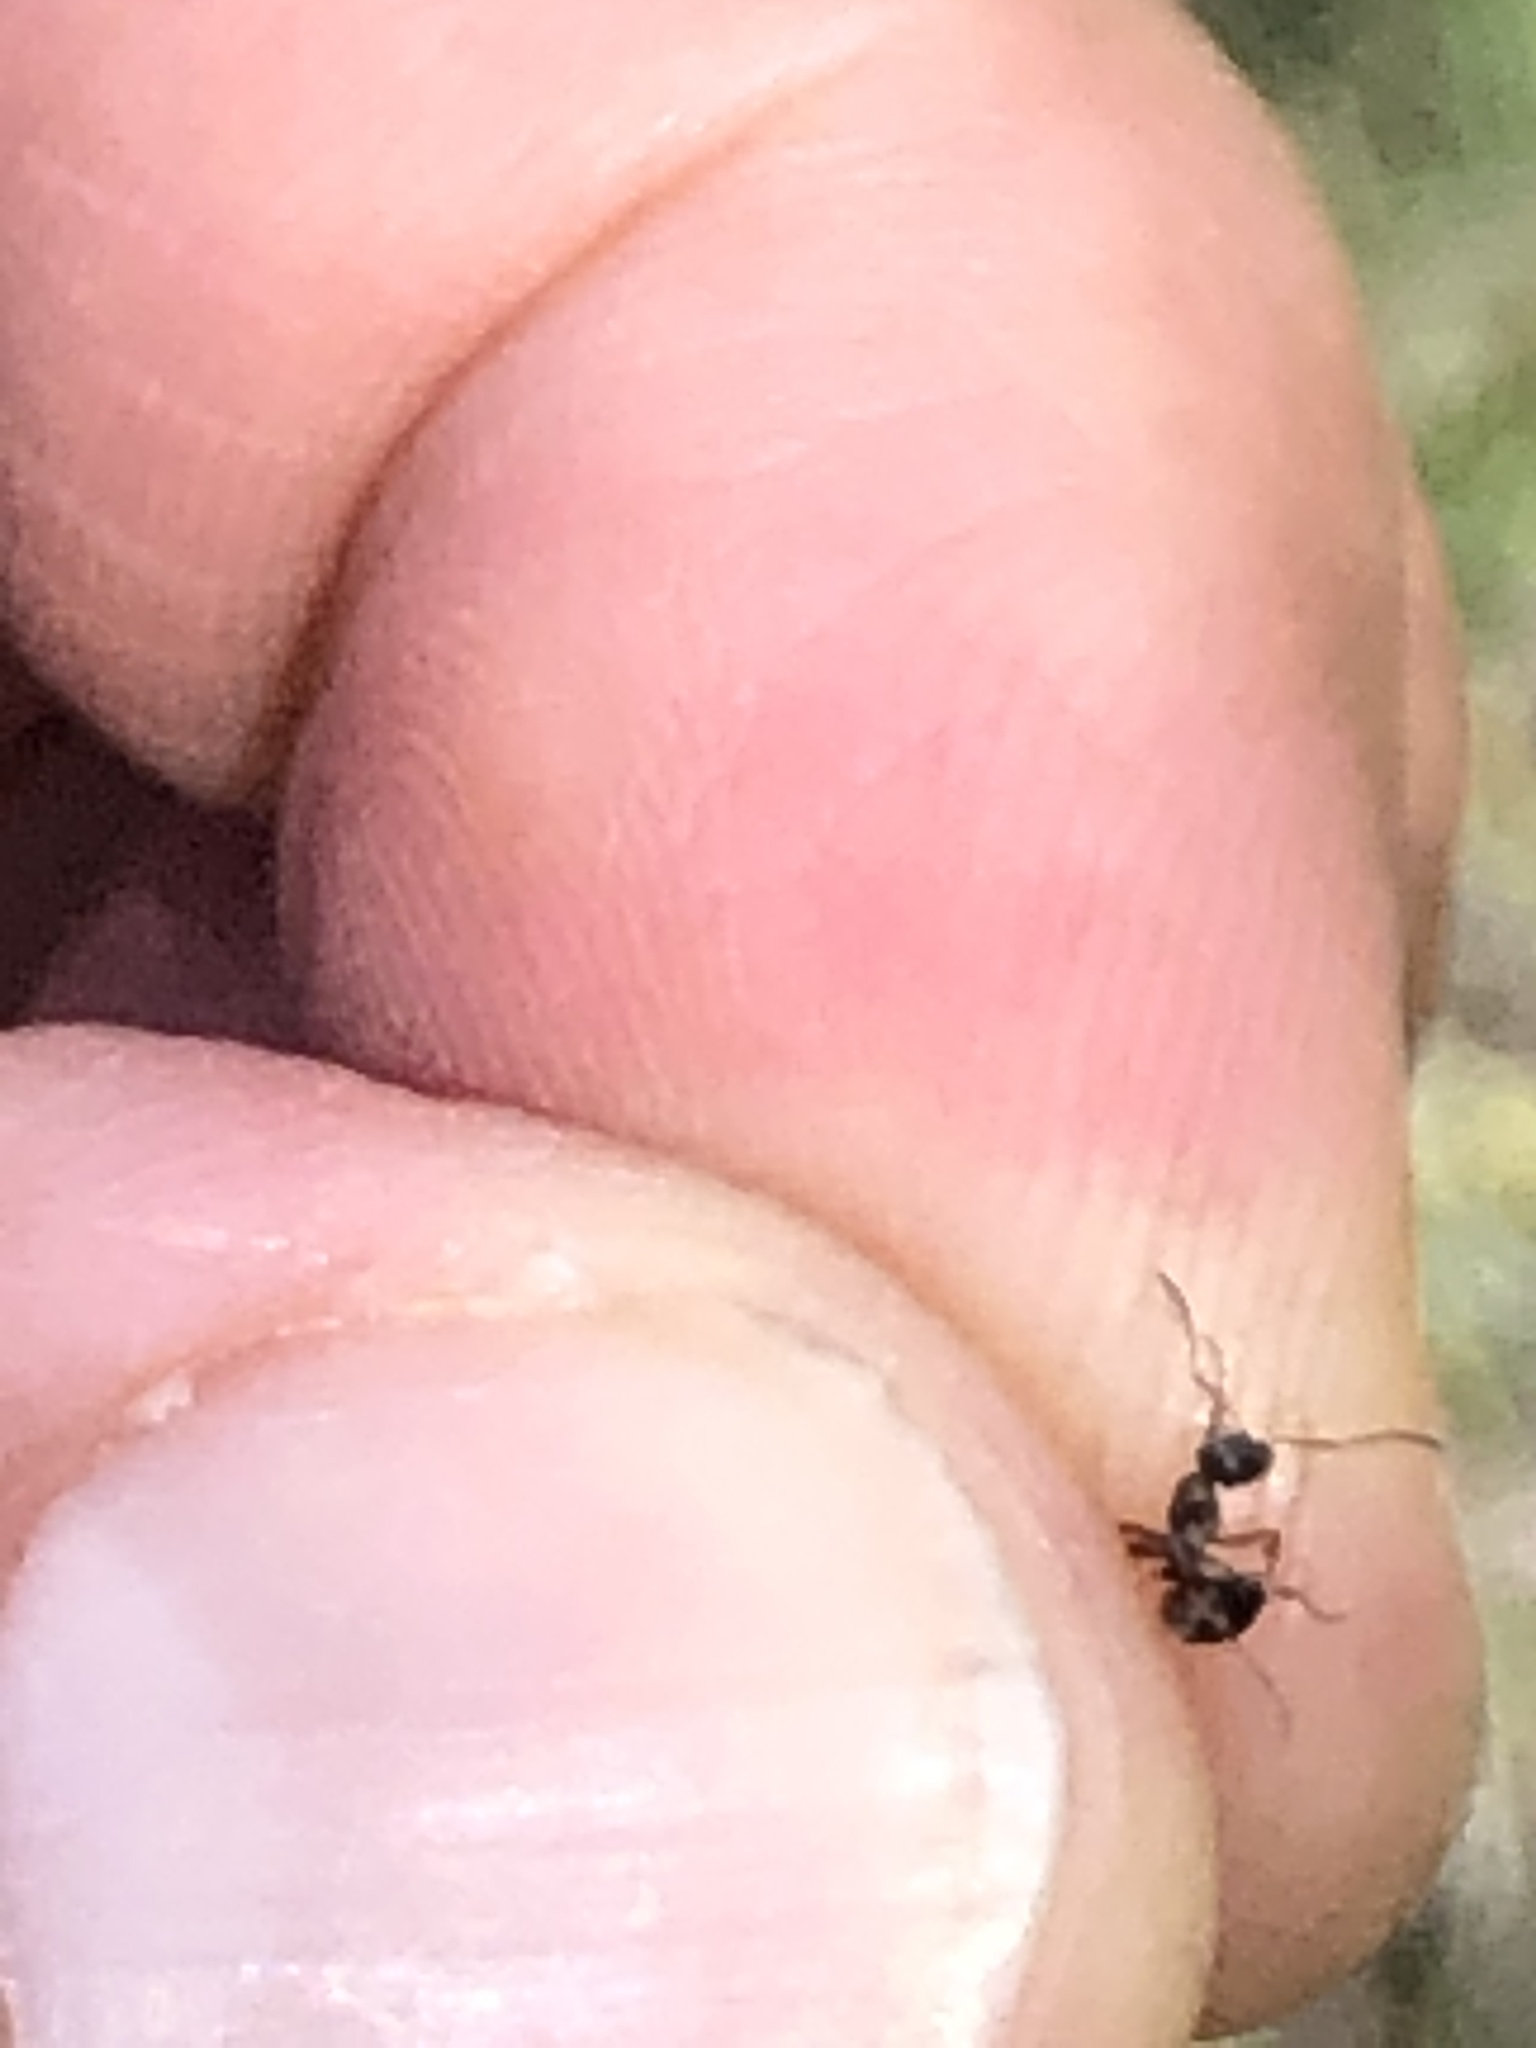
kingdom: Animalia
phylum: Arthropoda
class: Insecta
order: Hymenoptera
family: Formicidae
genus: Formica
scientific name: Formica
